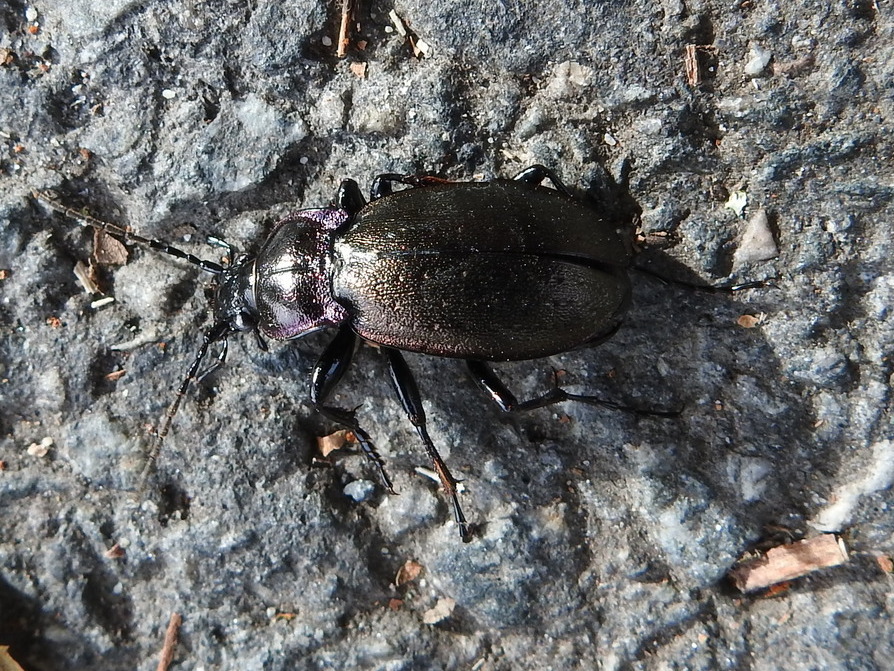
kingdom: Animalia
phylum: Arthropoda
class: Insecta
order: Coleoptera
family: Carabidae
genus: Carabus
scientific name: Carabus nemoralis
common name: European ground beetle
